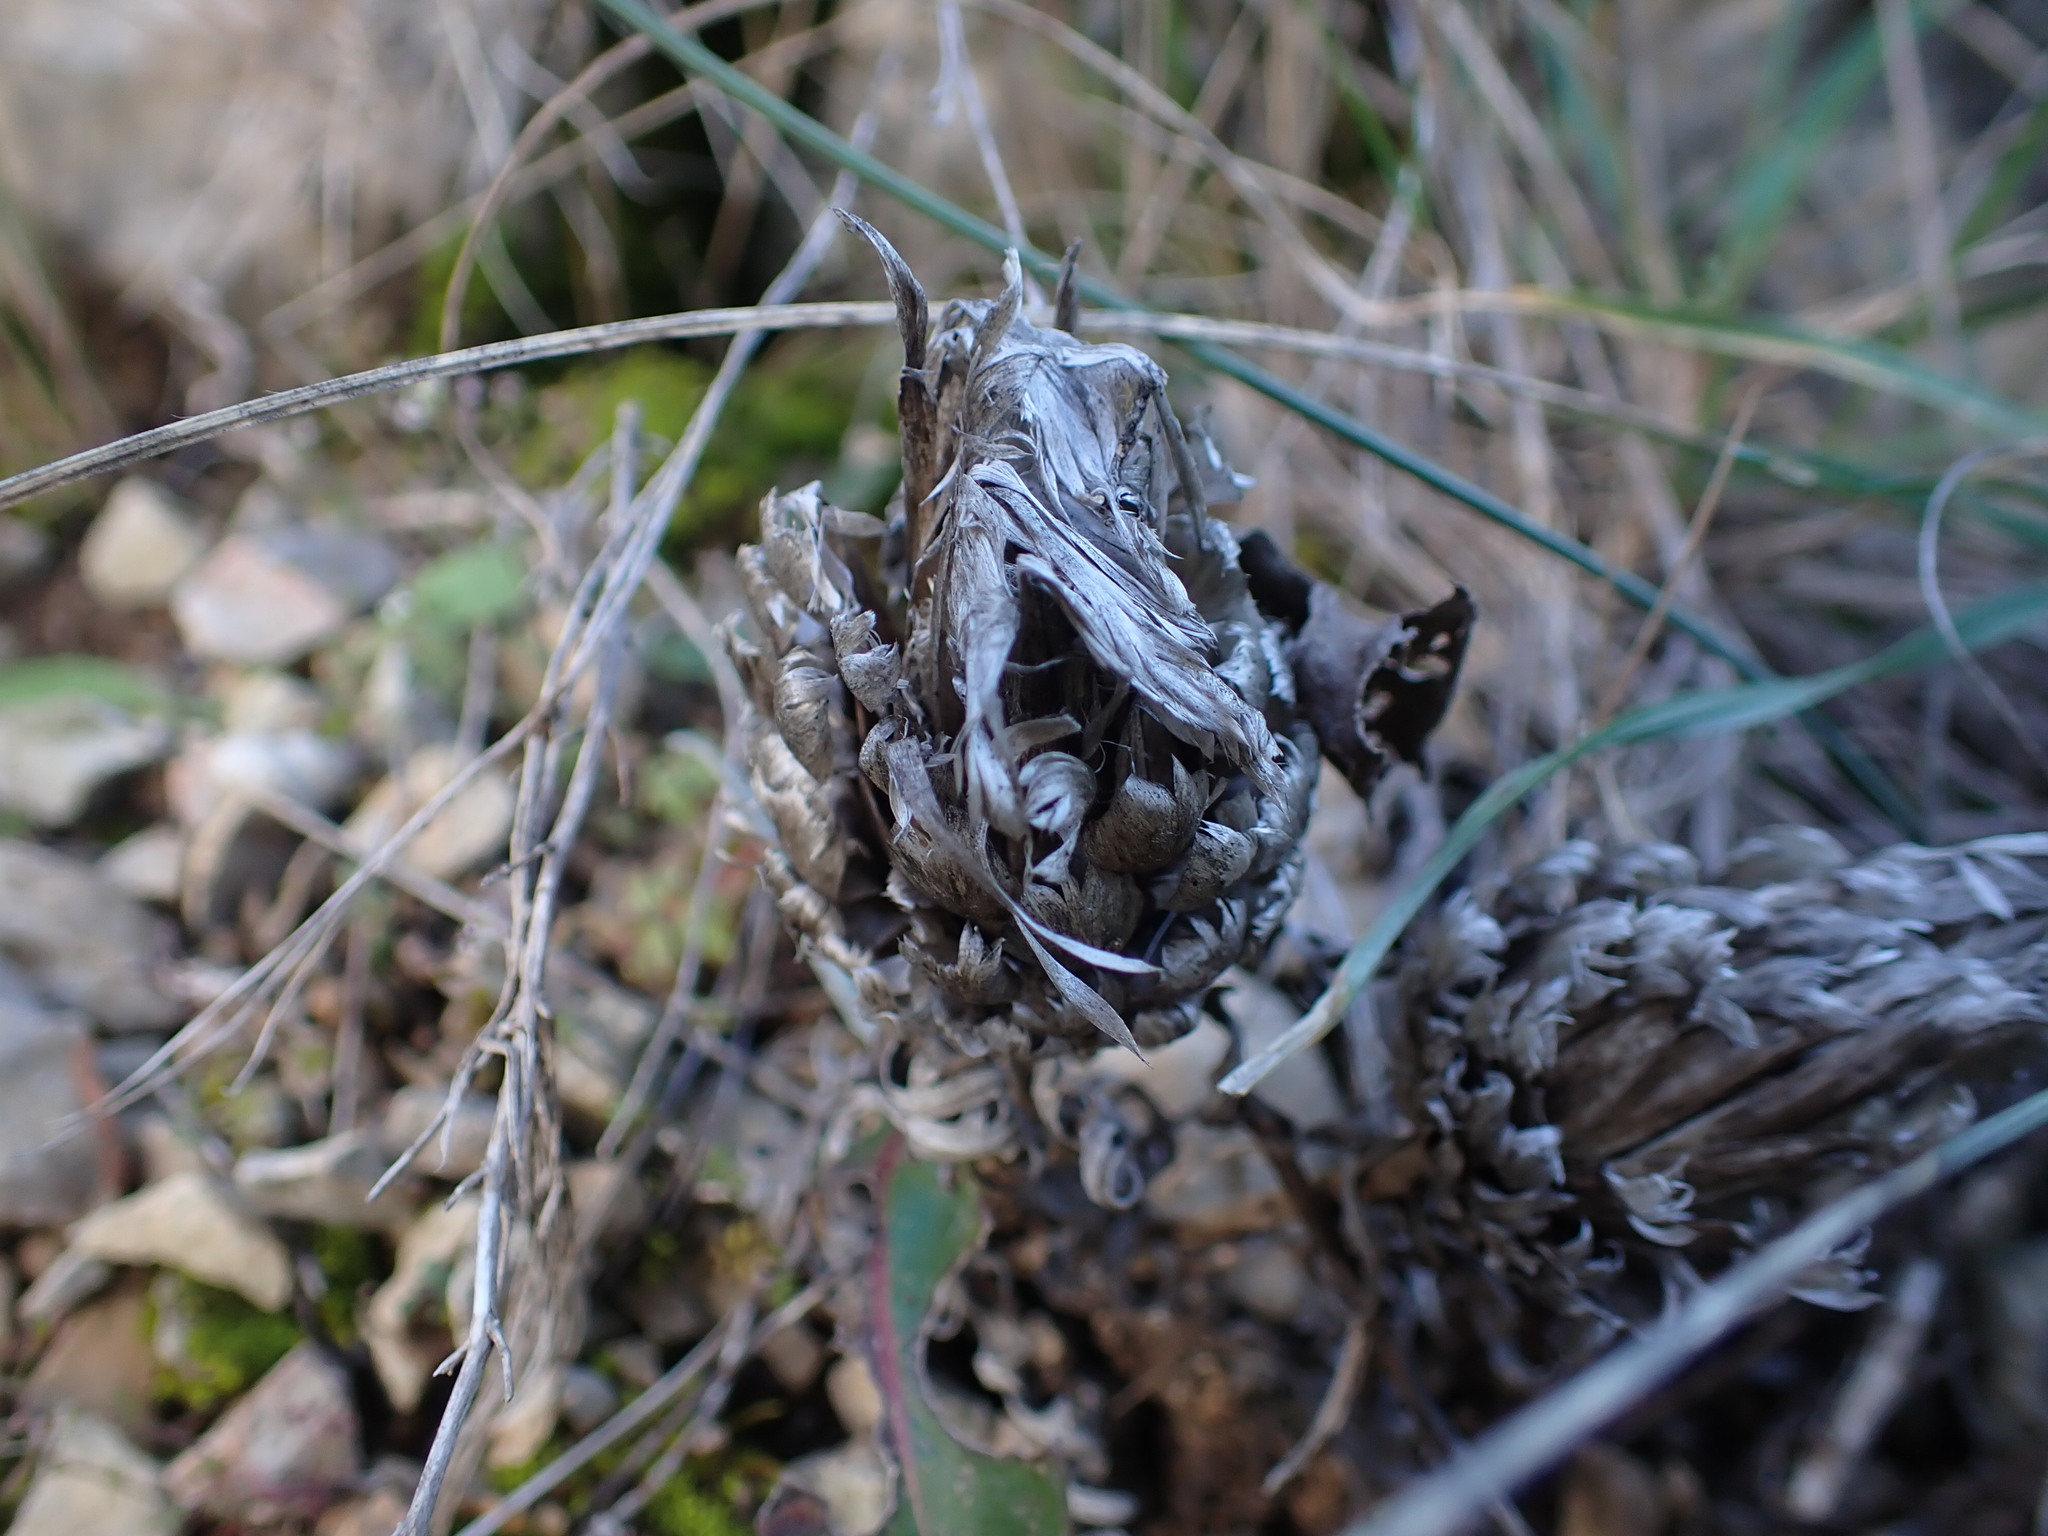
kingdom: Plantae
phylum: Tracheophyta
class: Magnoliopsida
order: Asterales
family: Asteraceae
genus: Leuzea
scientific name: Leuzea conifera
